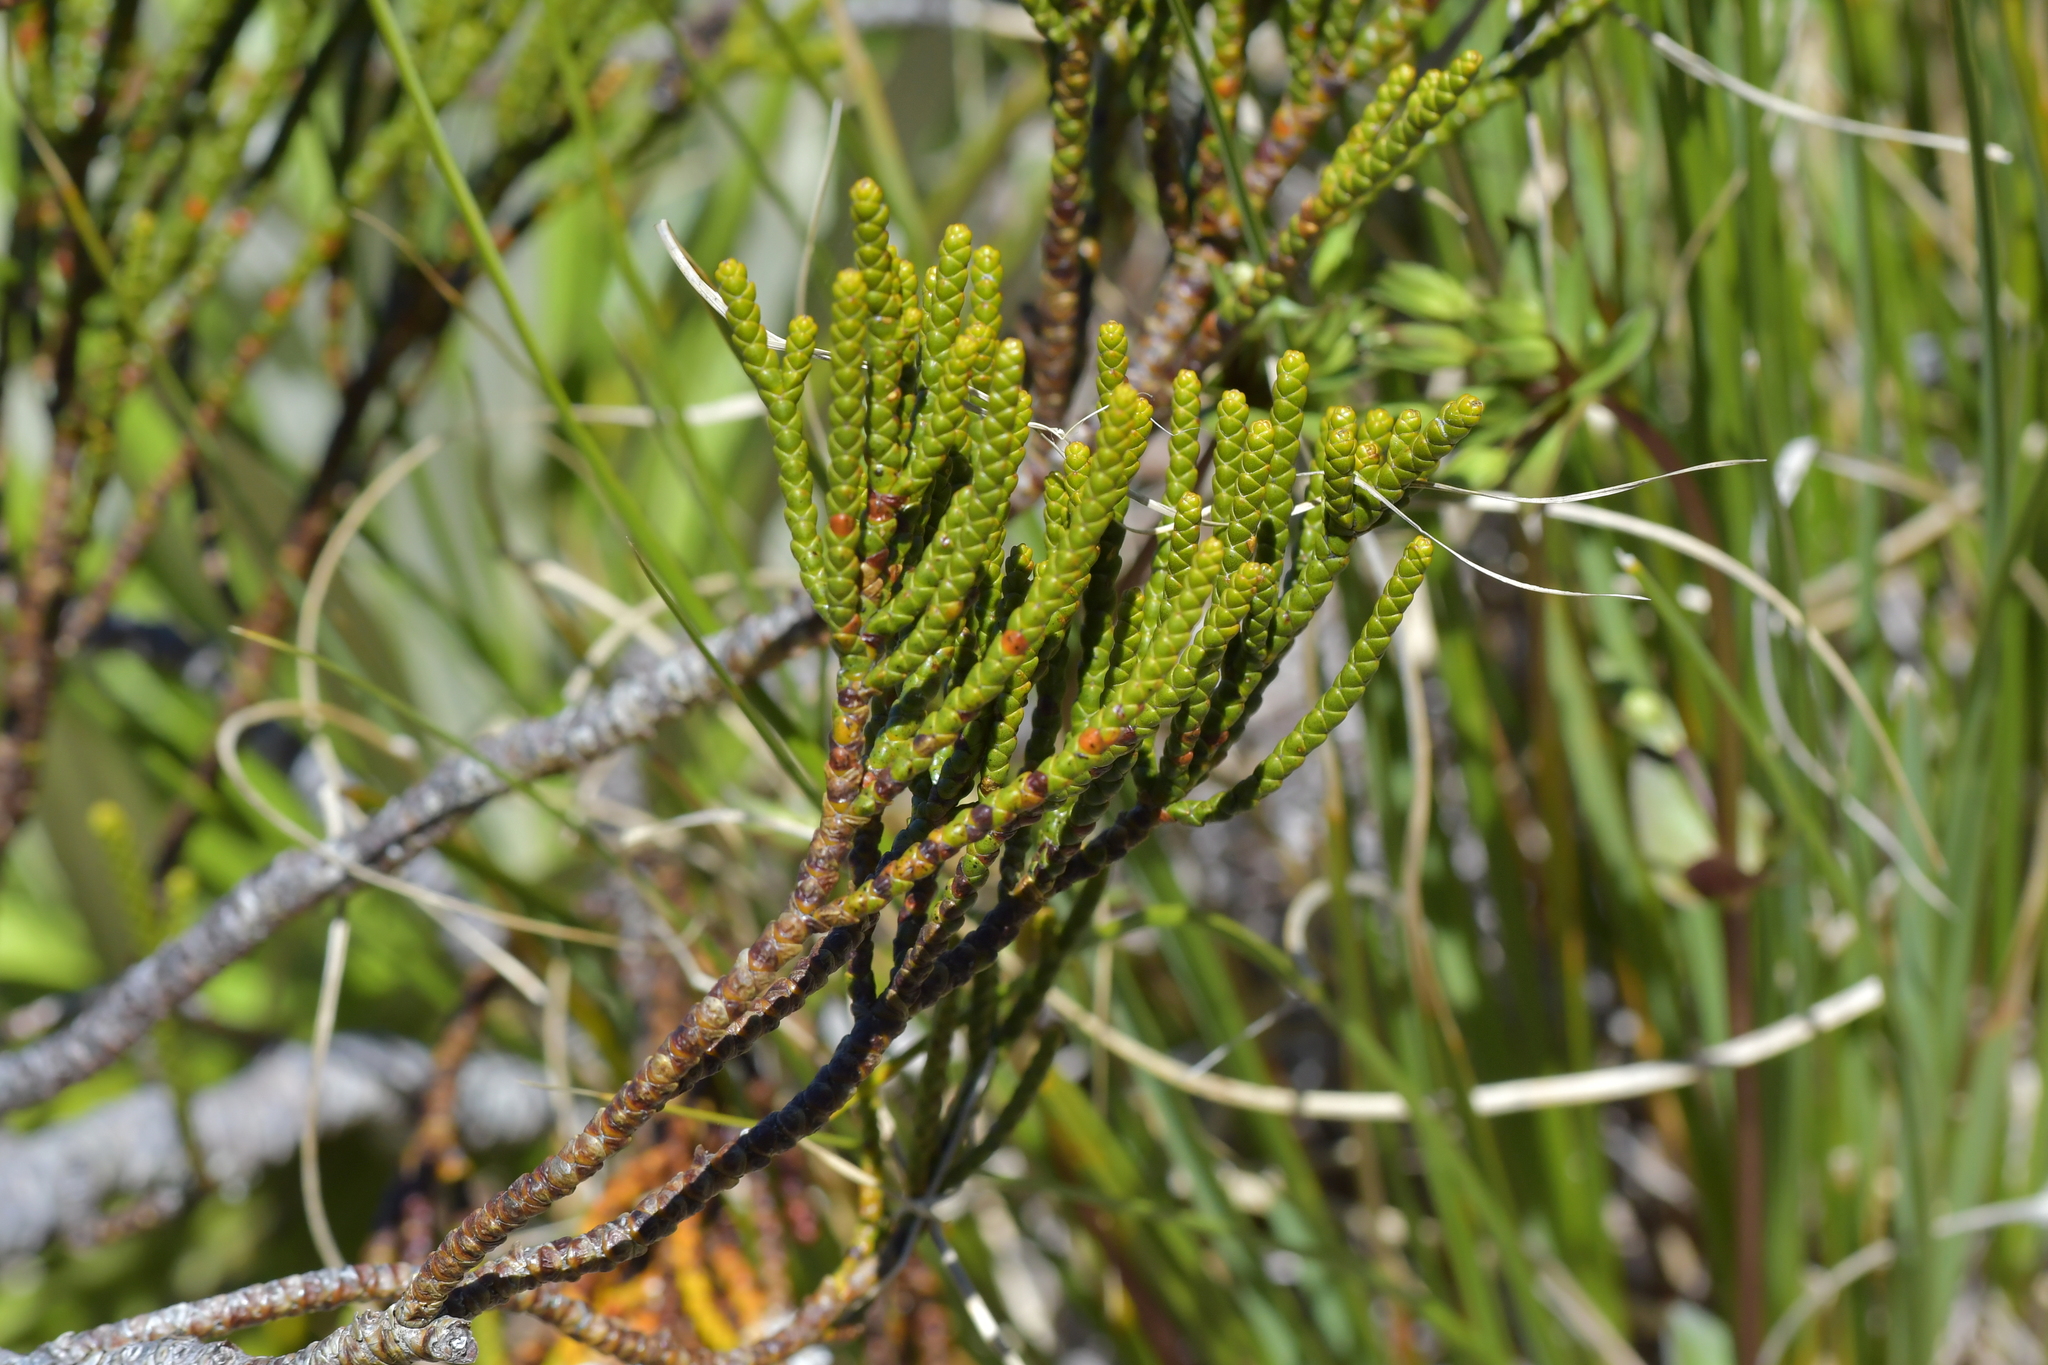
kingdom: Plantae
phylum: Tracheophyta
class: Magnoliopsida
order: Lamiales
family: Plantaginaceae
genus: Veronica
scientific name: Veronica hectorii
